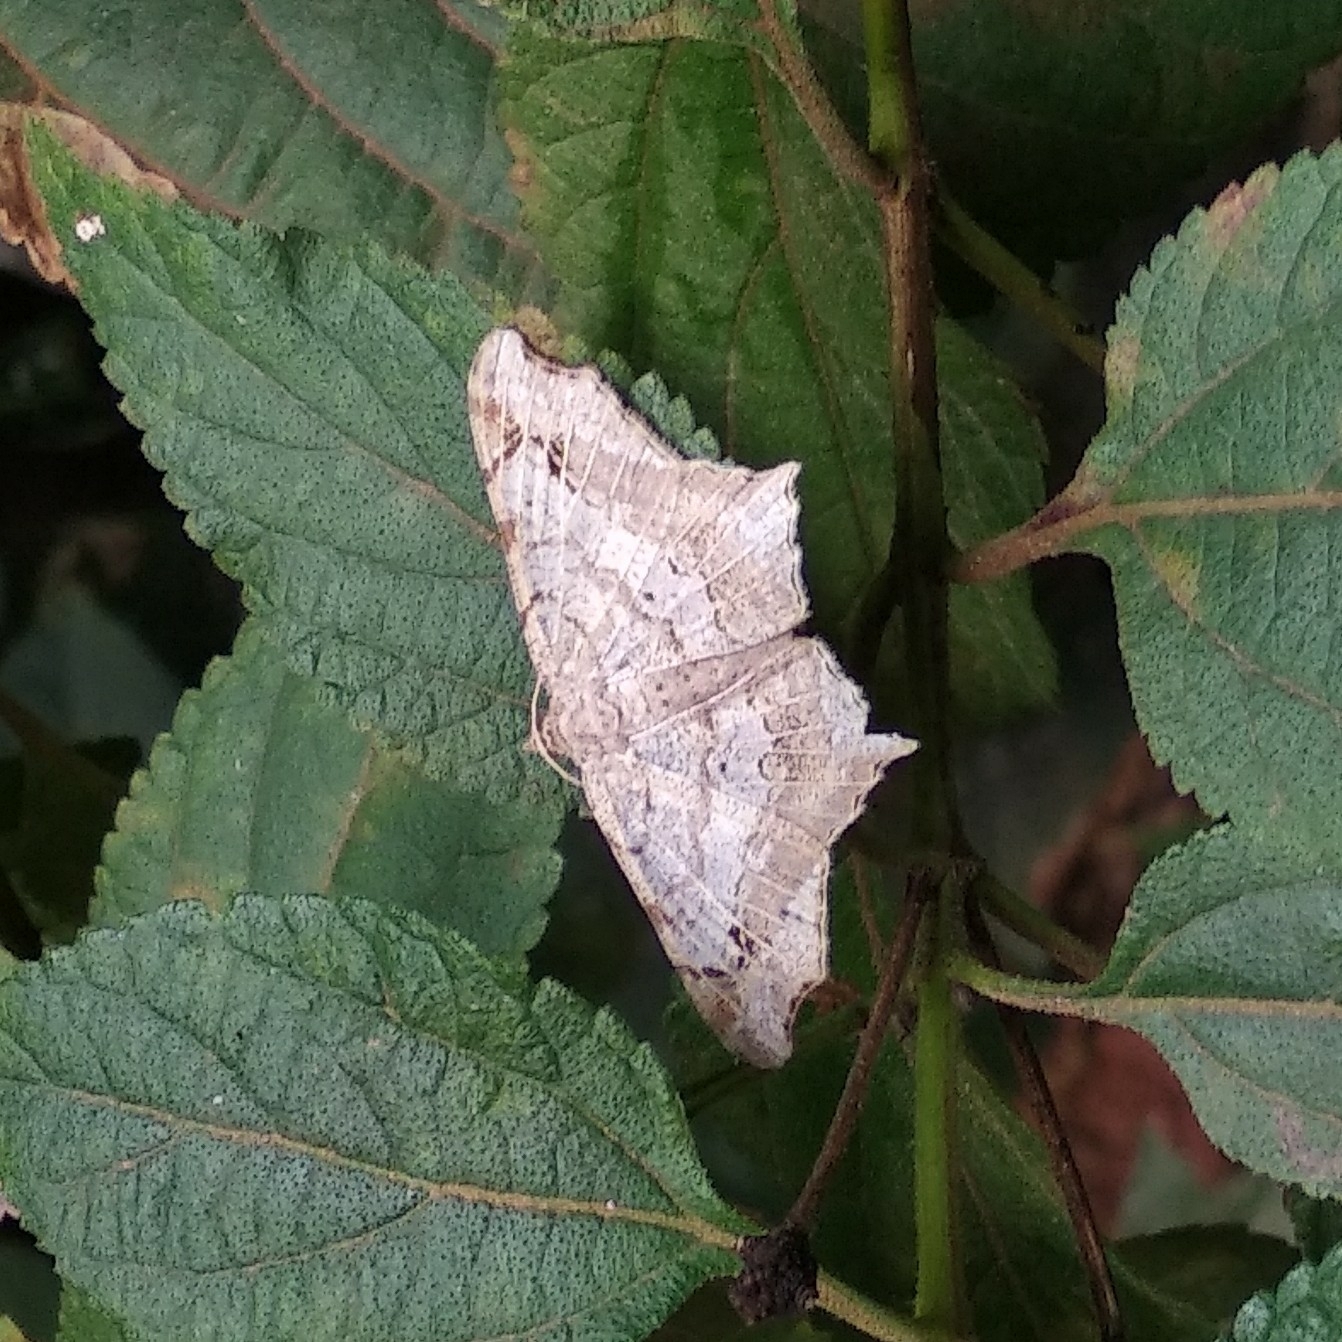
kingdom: Animalia
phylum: Arthropoda
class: Insecta
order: Lepidoptera
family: Geometridae
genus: Chiasmia
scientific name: Chiasmia emersaria
